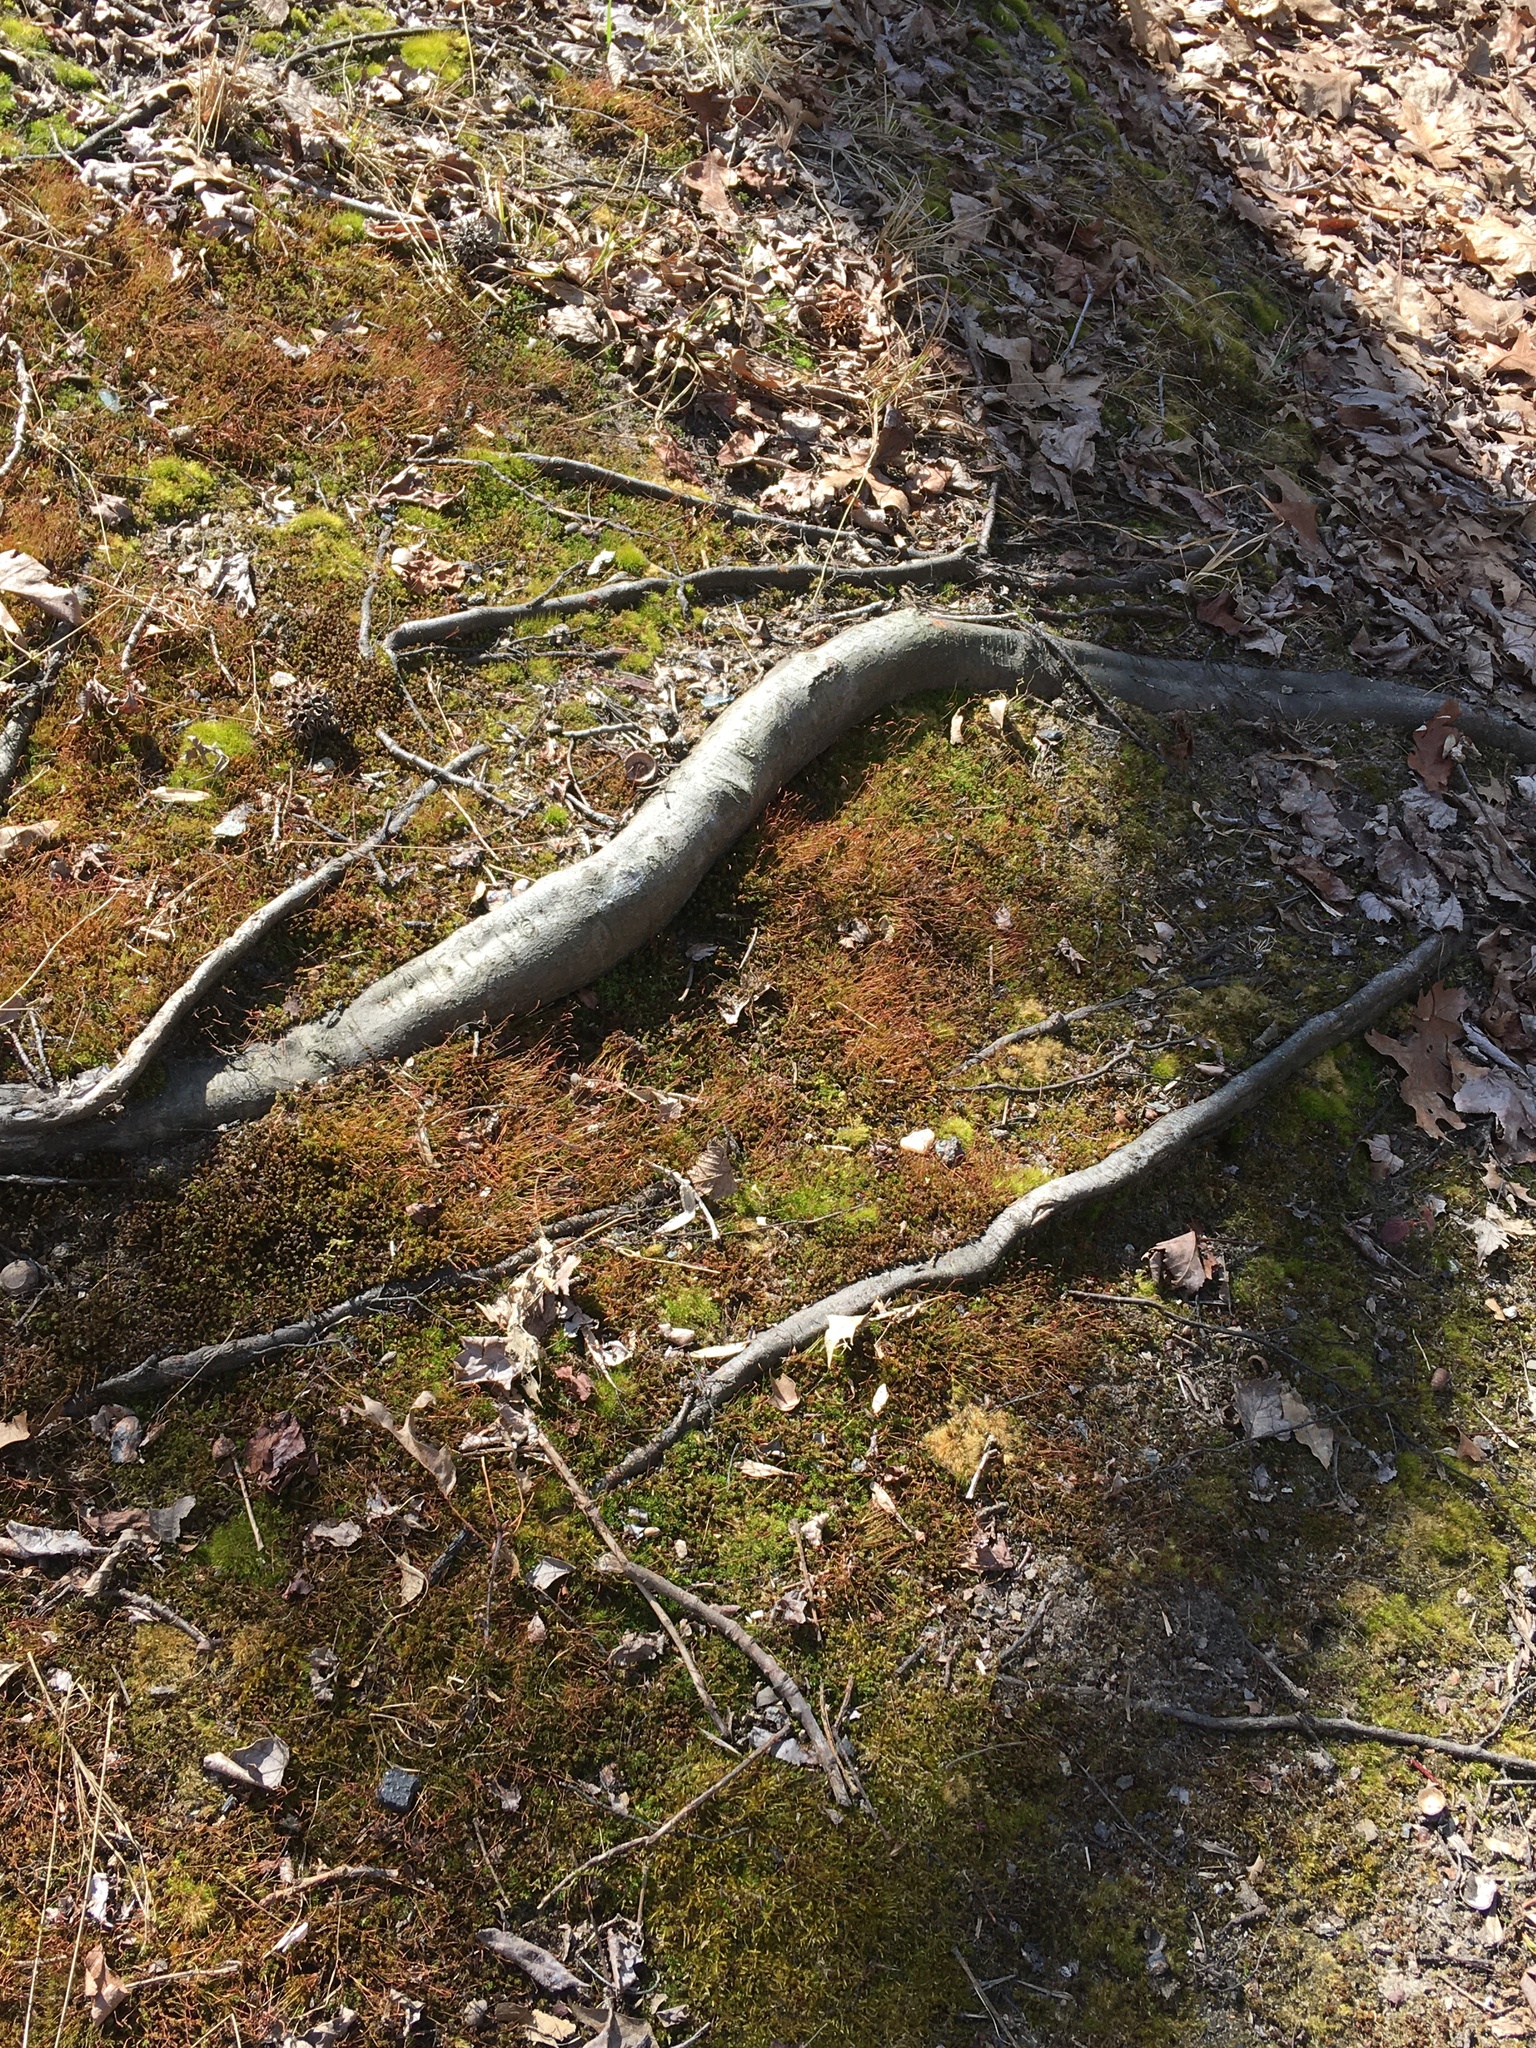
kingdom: Plantae
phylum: Bryophyta
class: Polytrichopsida
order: Polytrichales
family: Polytrichaceae
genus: Atrichum
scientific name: Atrichum angustatum
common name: Lesser smoothcap
